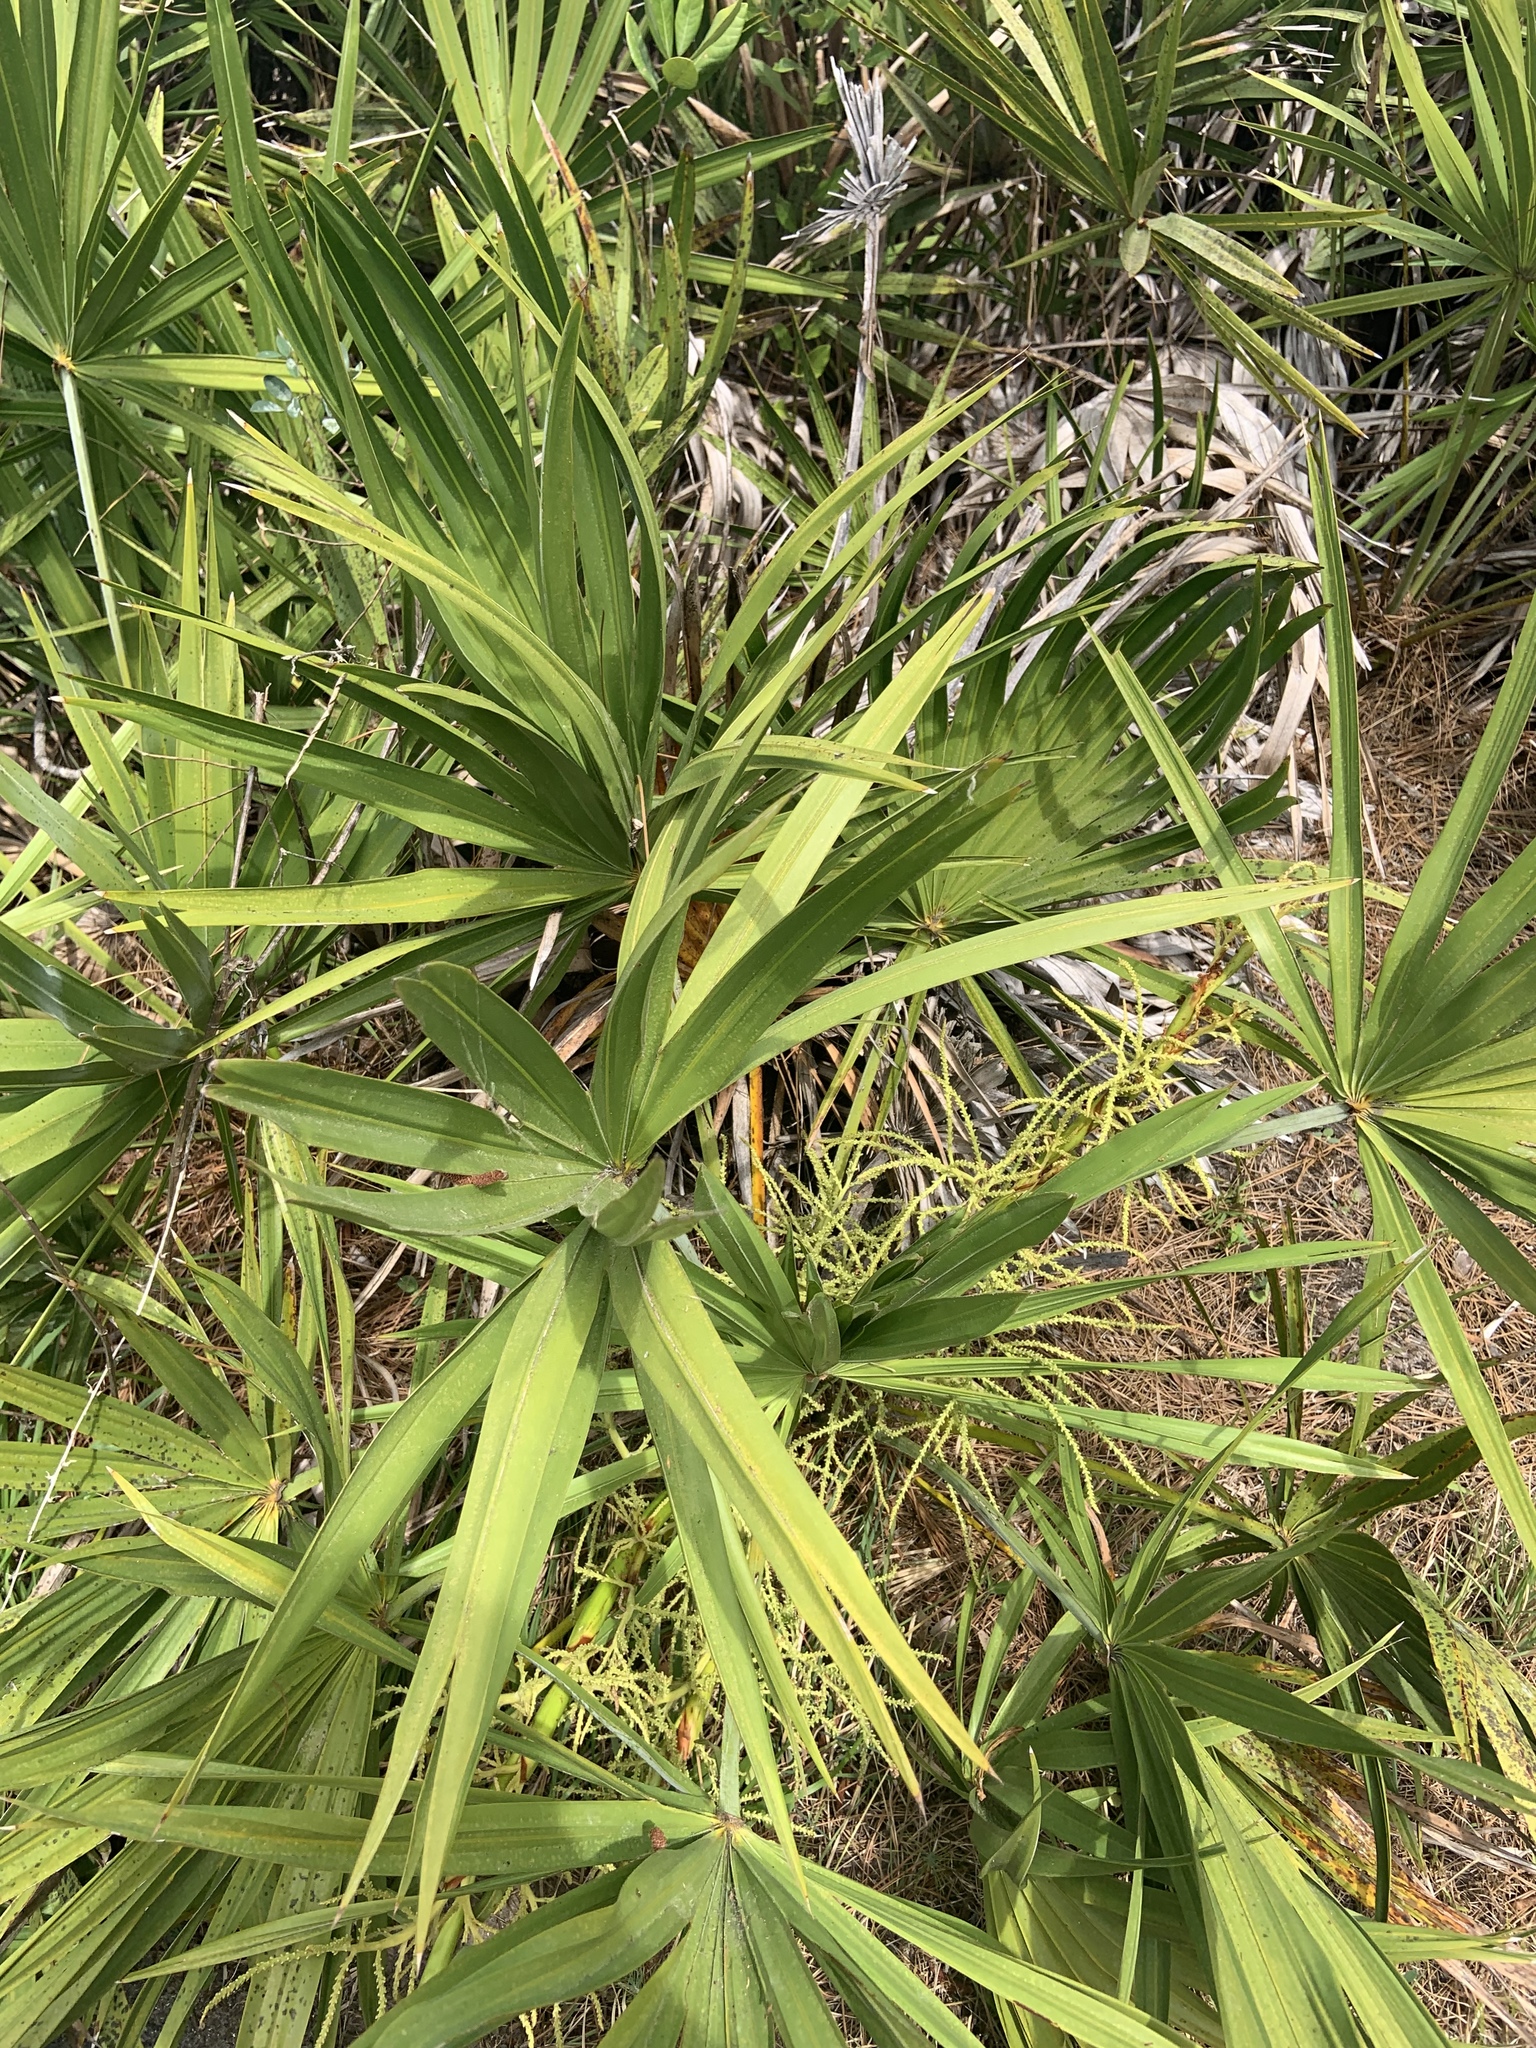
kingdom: Plantae
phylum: Tracheophyta
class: Liliopsida
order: Arecales
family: Arecaceae
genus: Serenoa
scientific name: Serenoa repens
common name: Saw-palmetto
